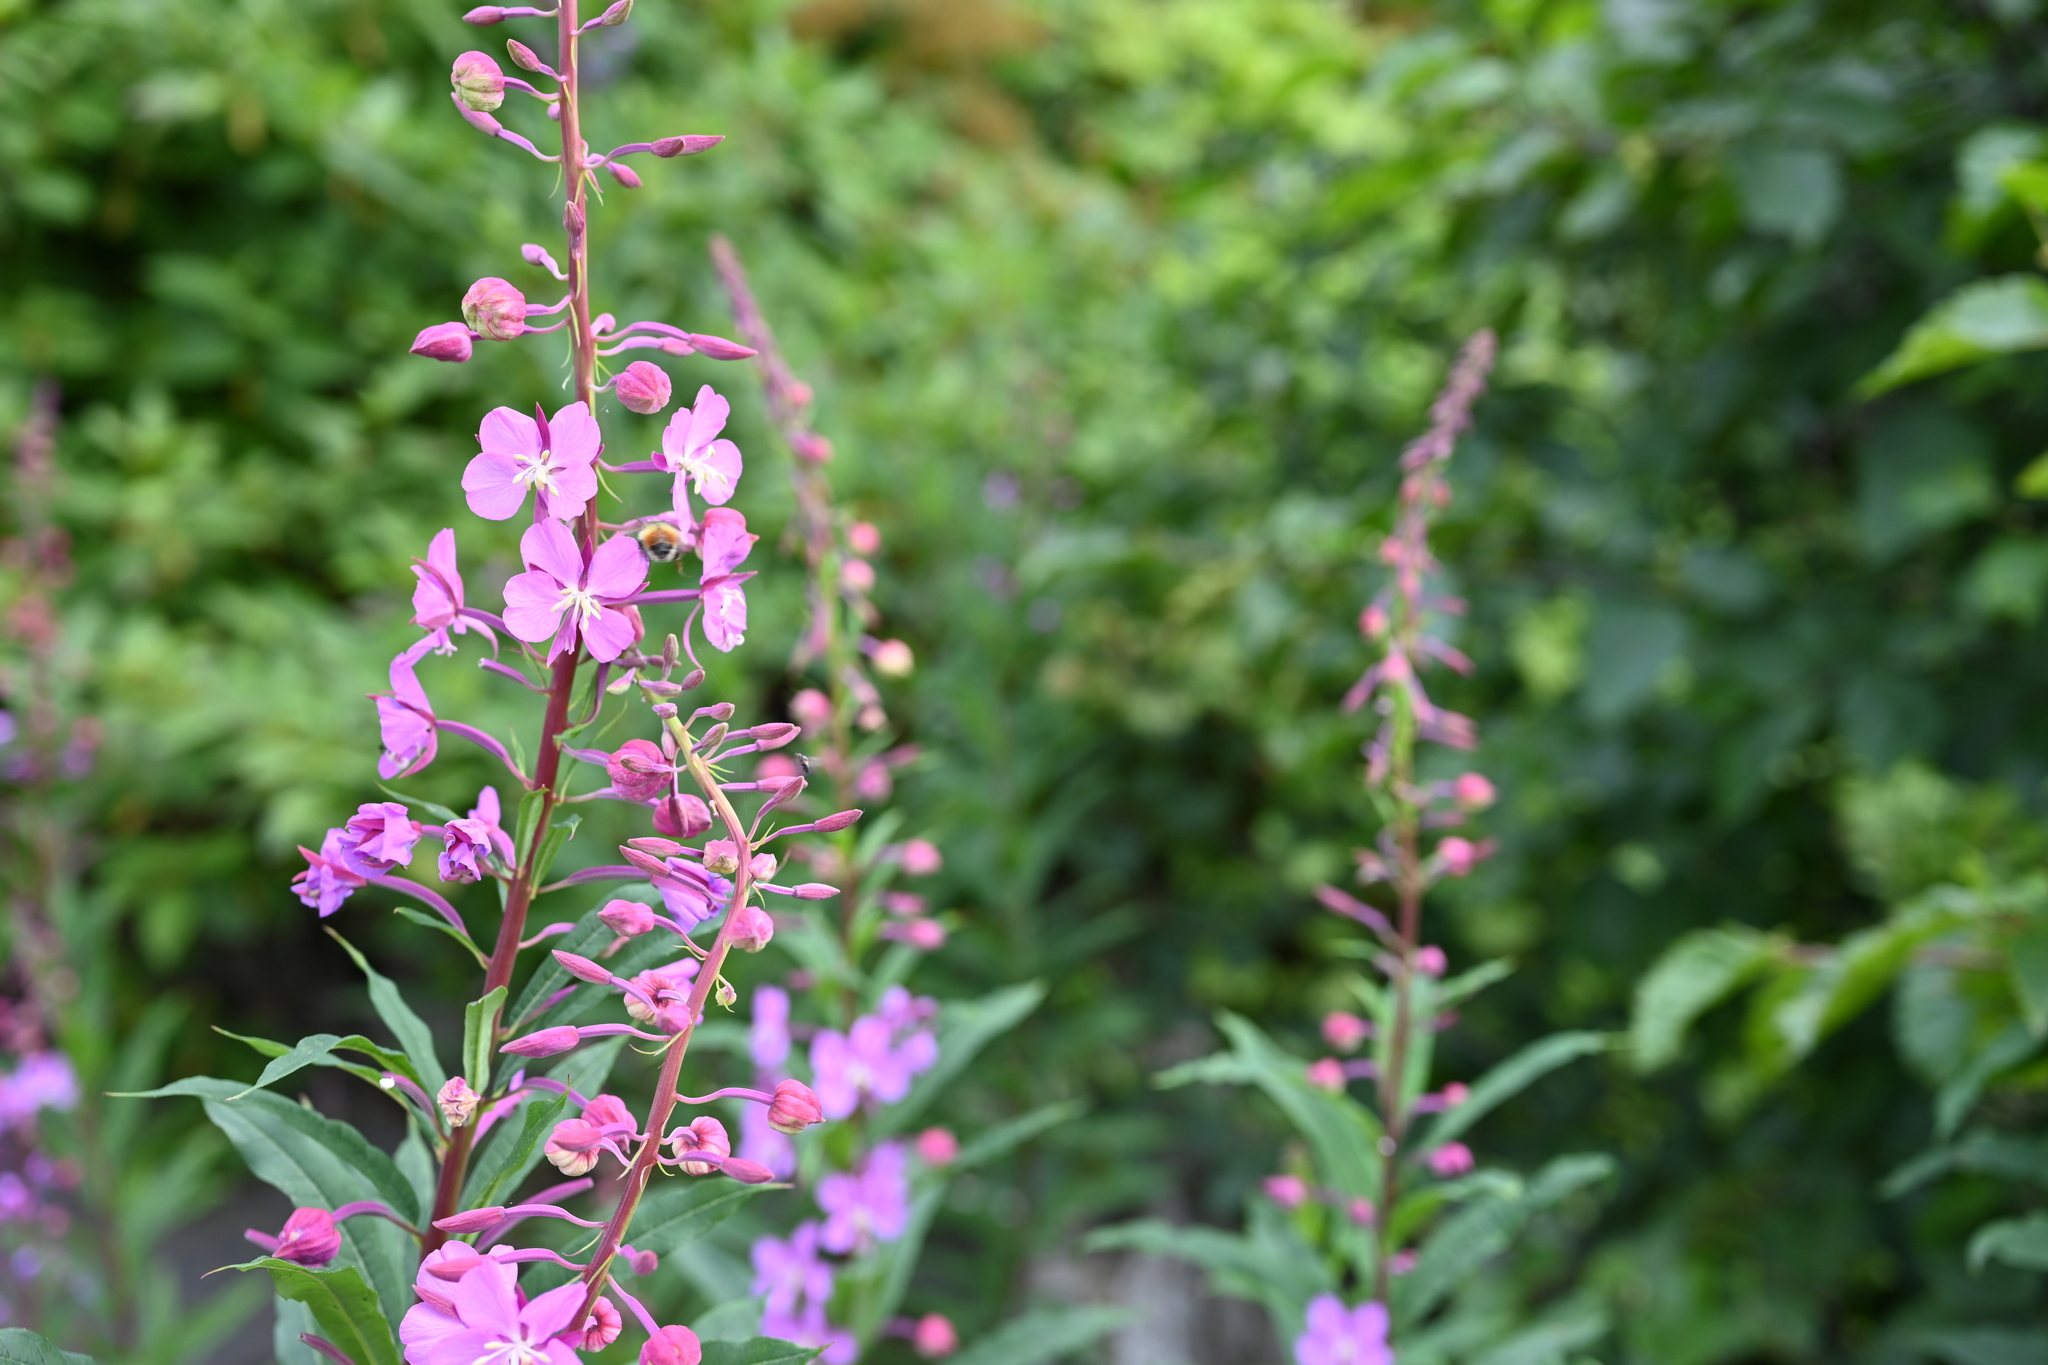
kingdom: Plantae
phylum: Tracheophyta
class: Magnoliopsida
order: Myrtales
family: Onagraceae
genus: Chamaenerion
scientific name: Chamaenerion angustifolium
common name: Fireweed
